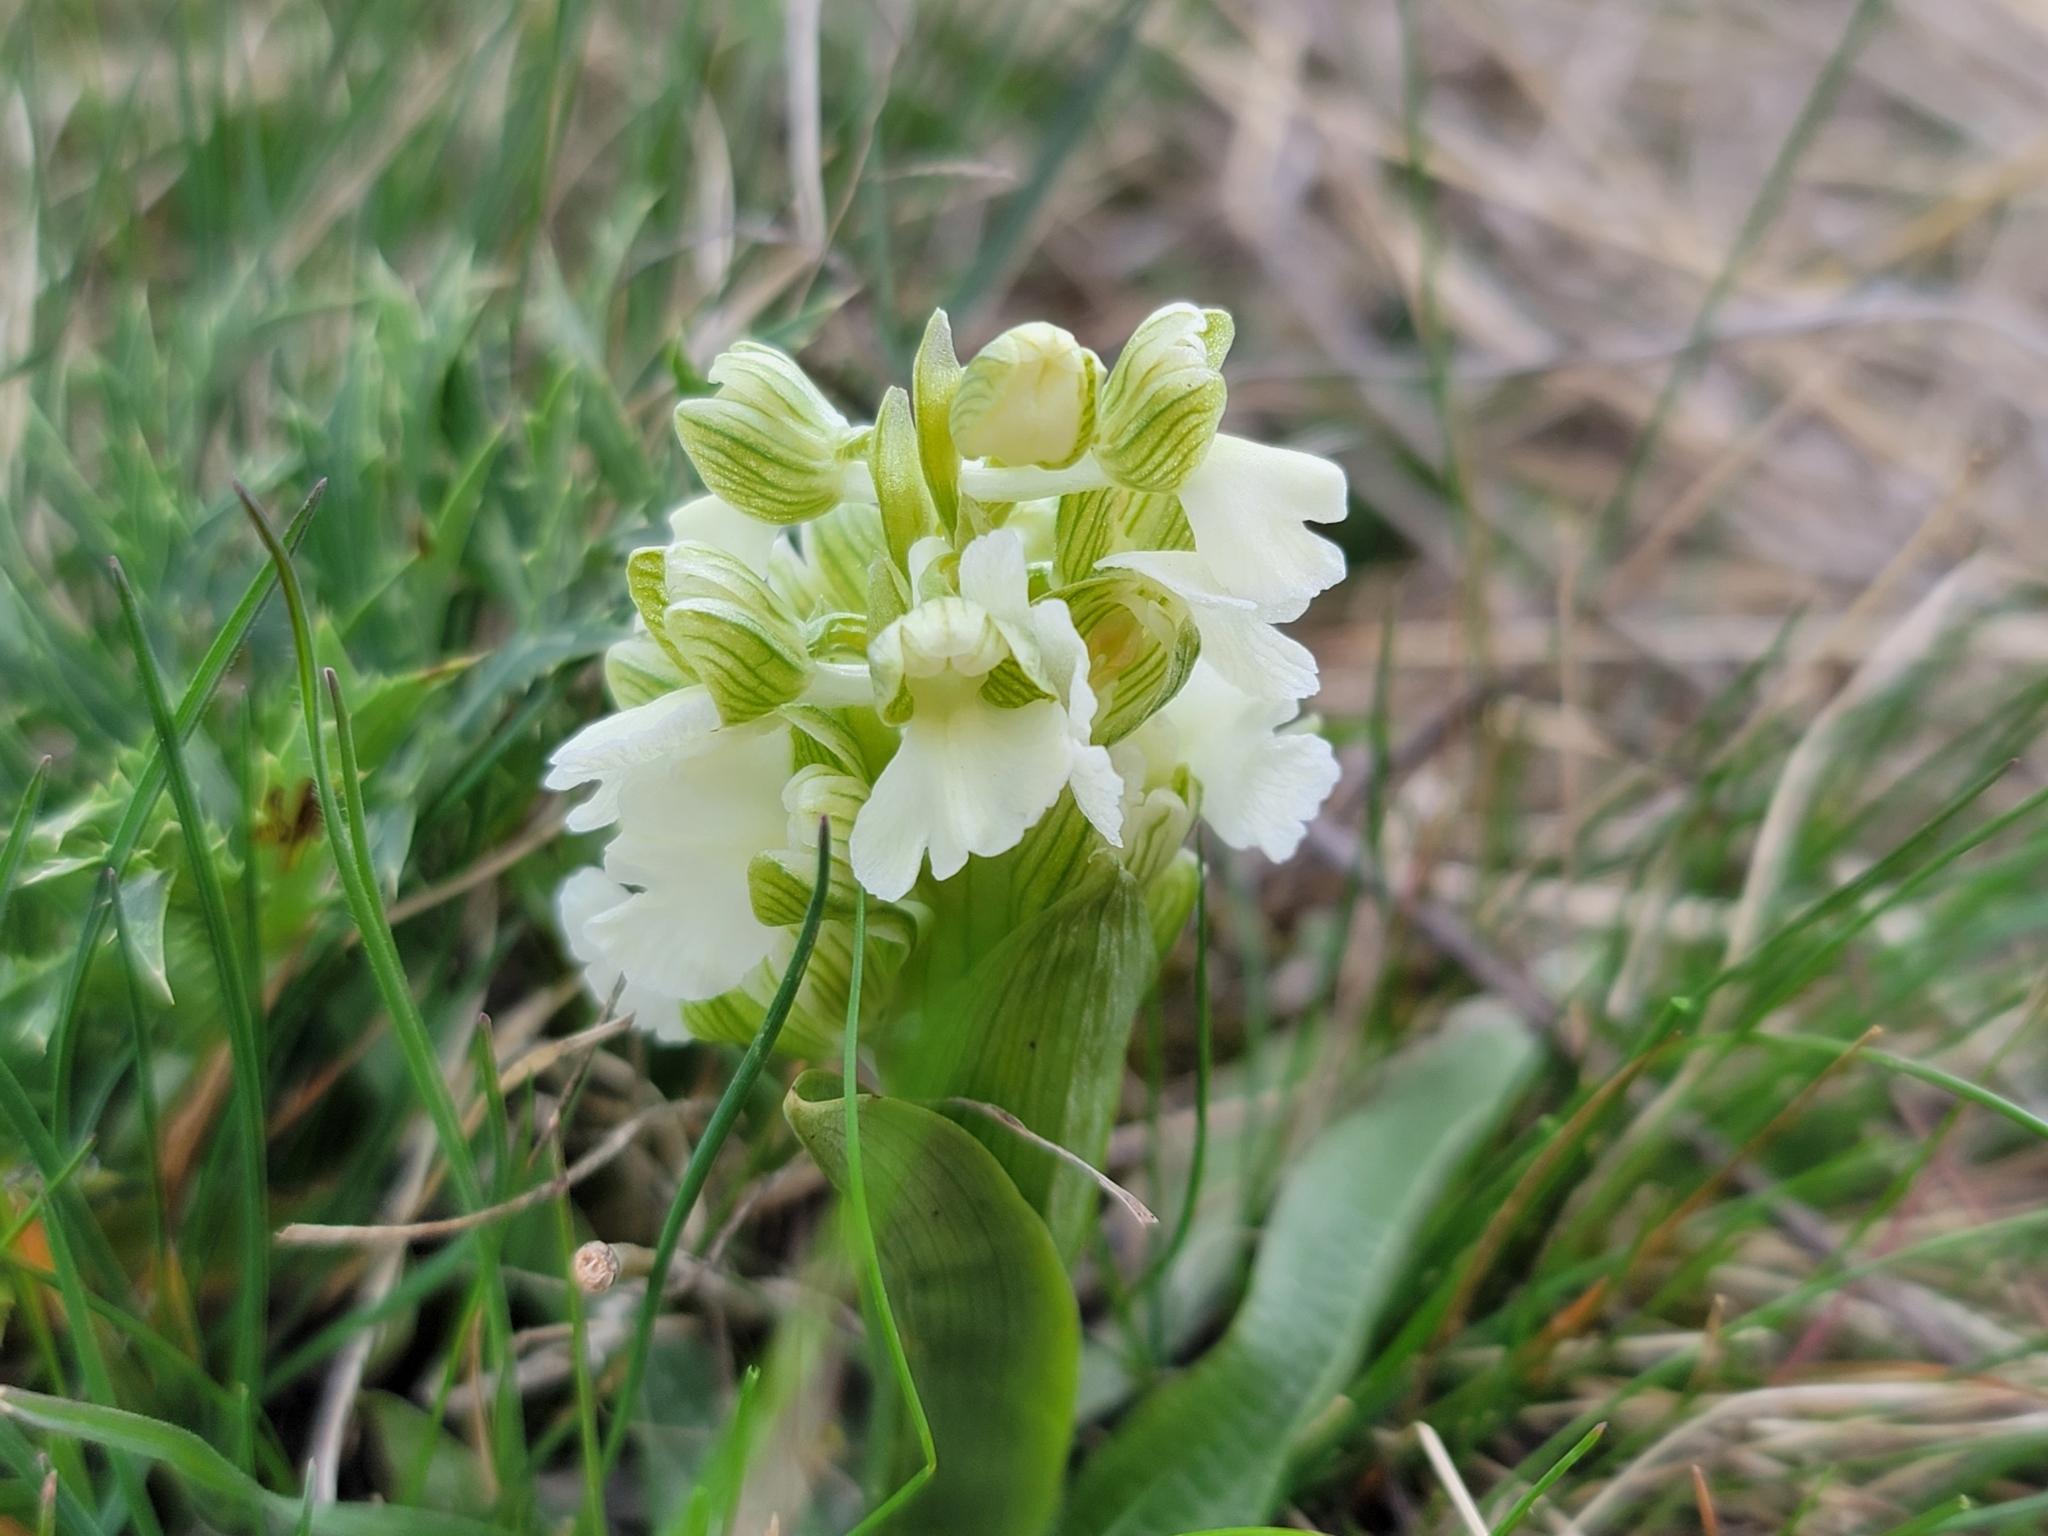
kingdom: Plantae
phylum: Tracheophyta
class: Liliopsida
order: Asparagales
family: Orchidaceae
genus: Anacamptis
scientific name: Anacamptis morio
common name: Green-winged orchid
